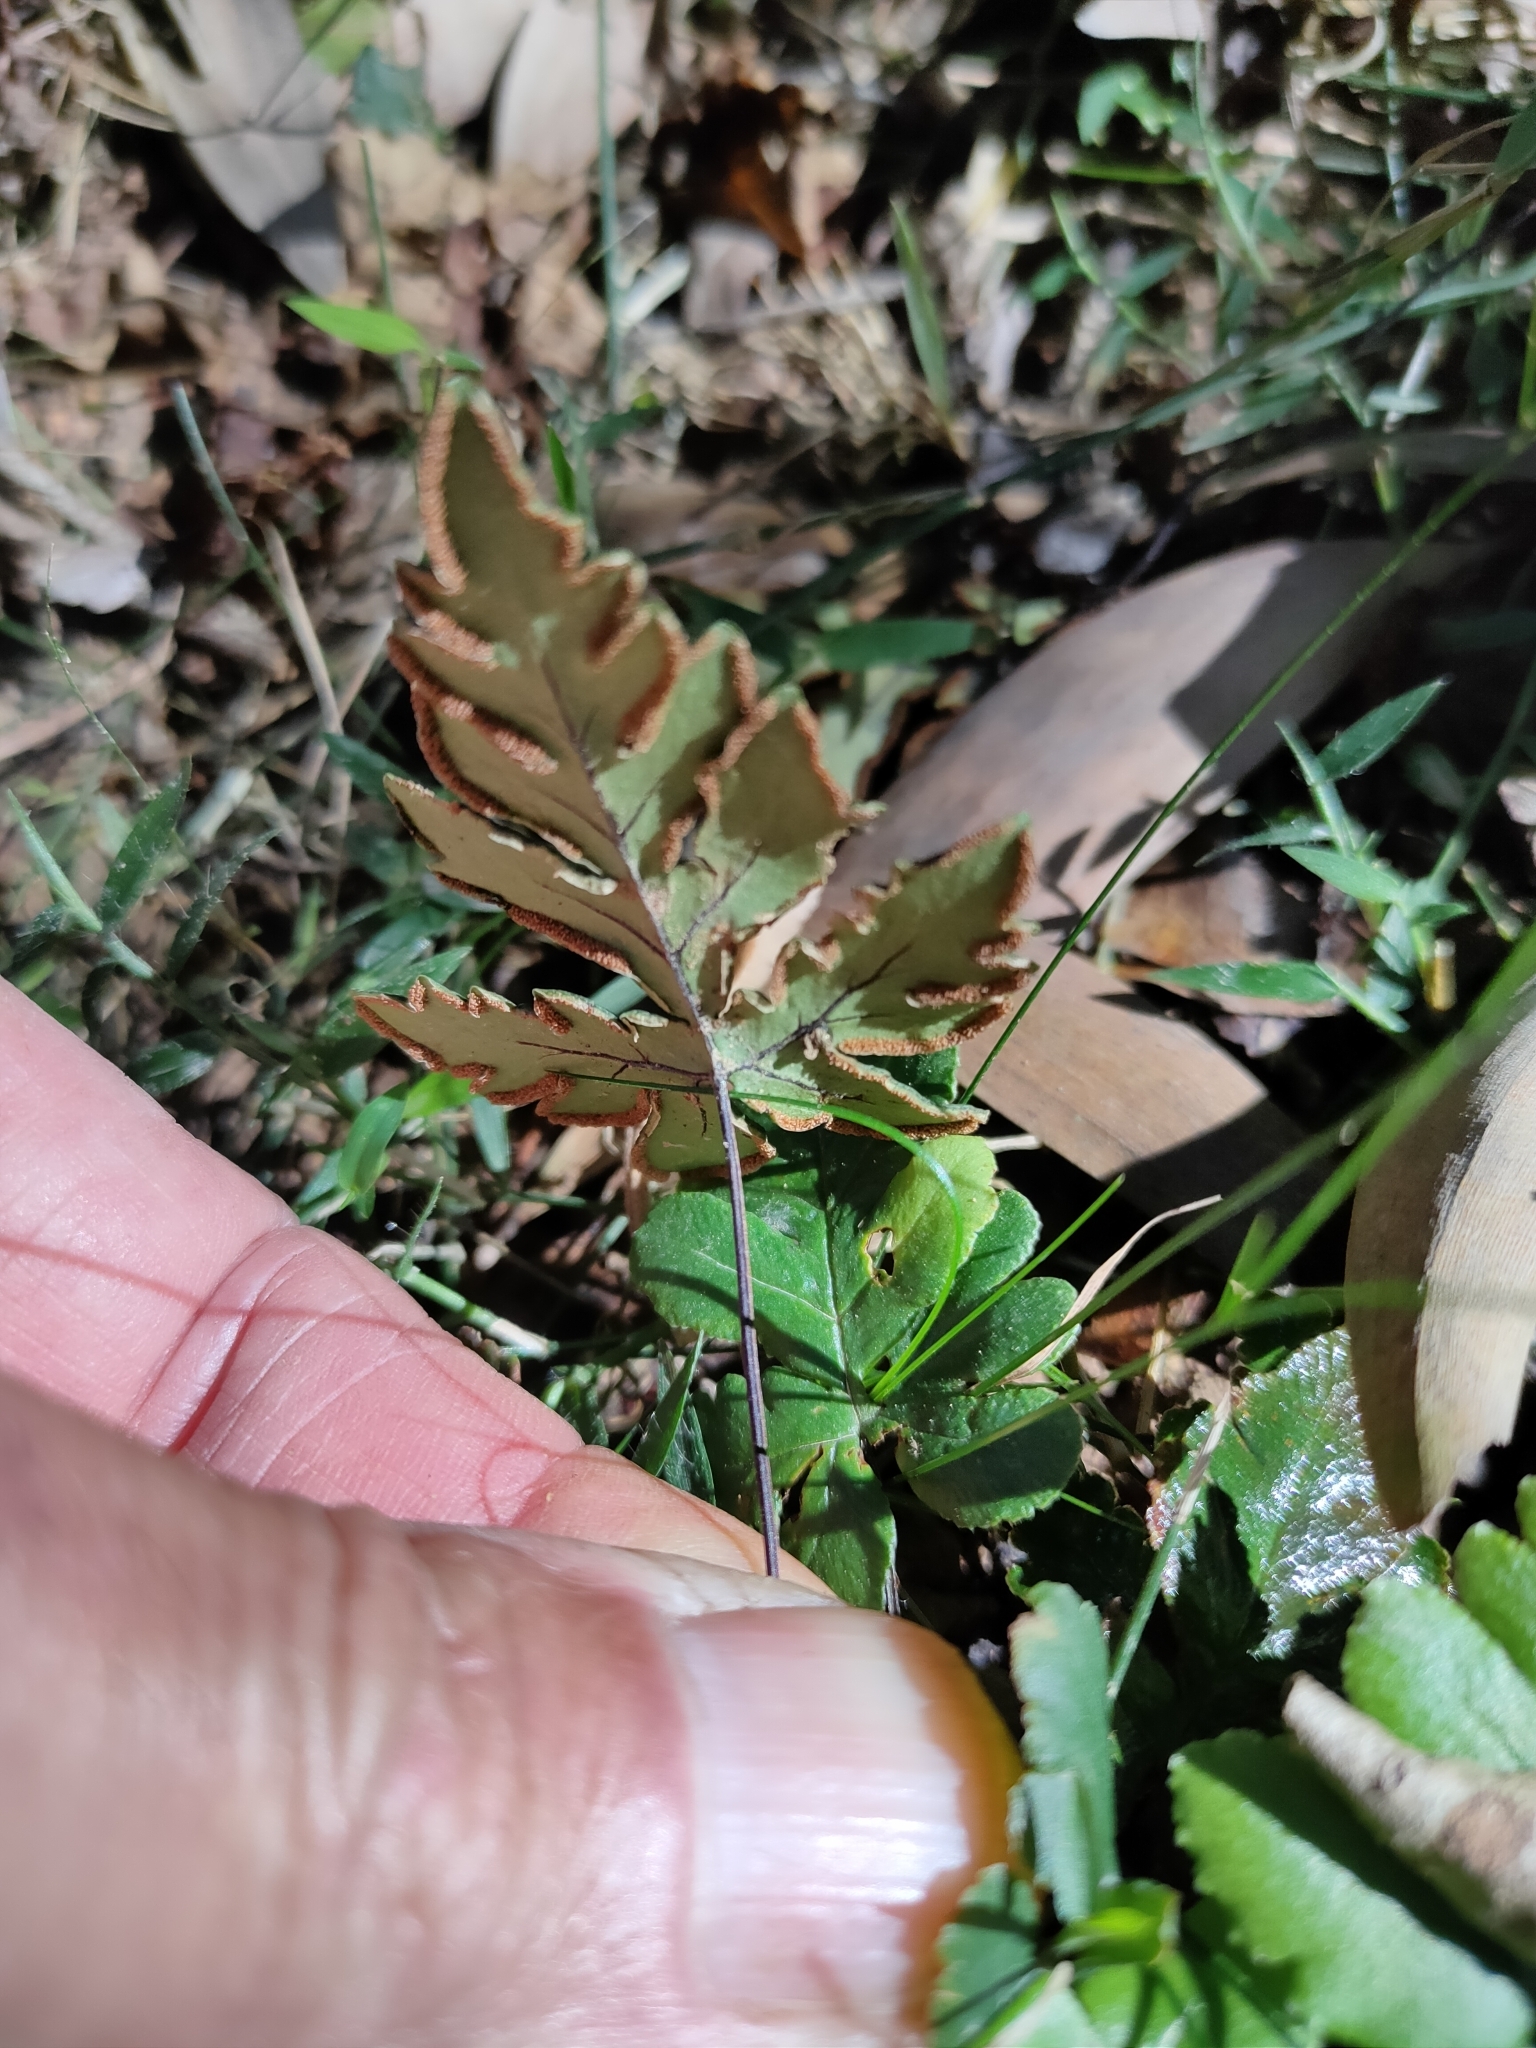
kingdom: Plantae
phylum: Tracheophyta
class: Polypodiopsida
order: Polypodiales
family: Pteridaceae
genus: Doryopteris
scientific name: Doryopteris concolor
